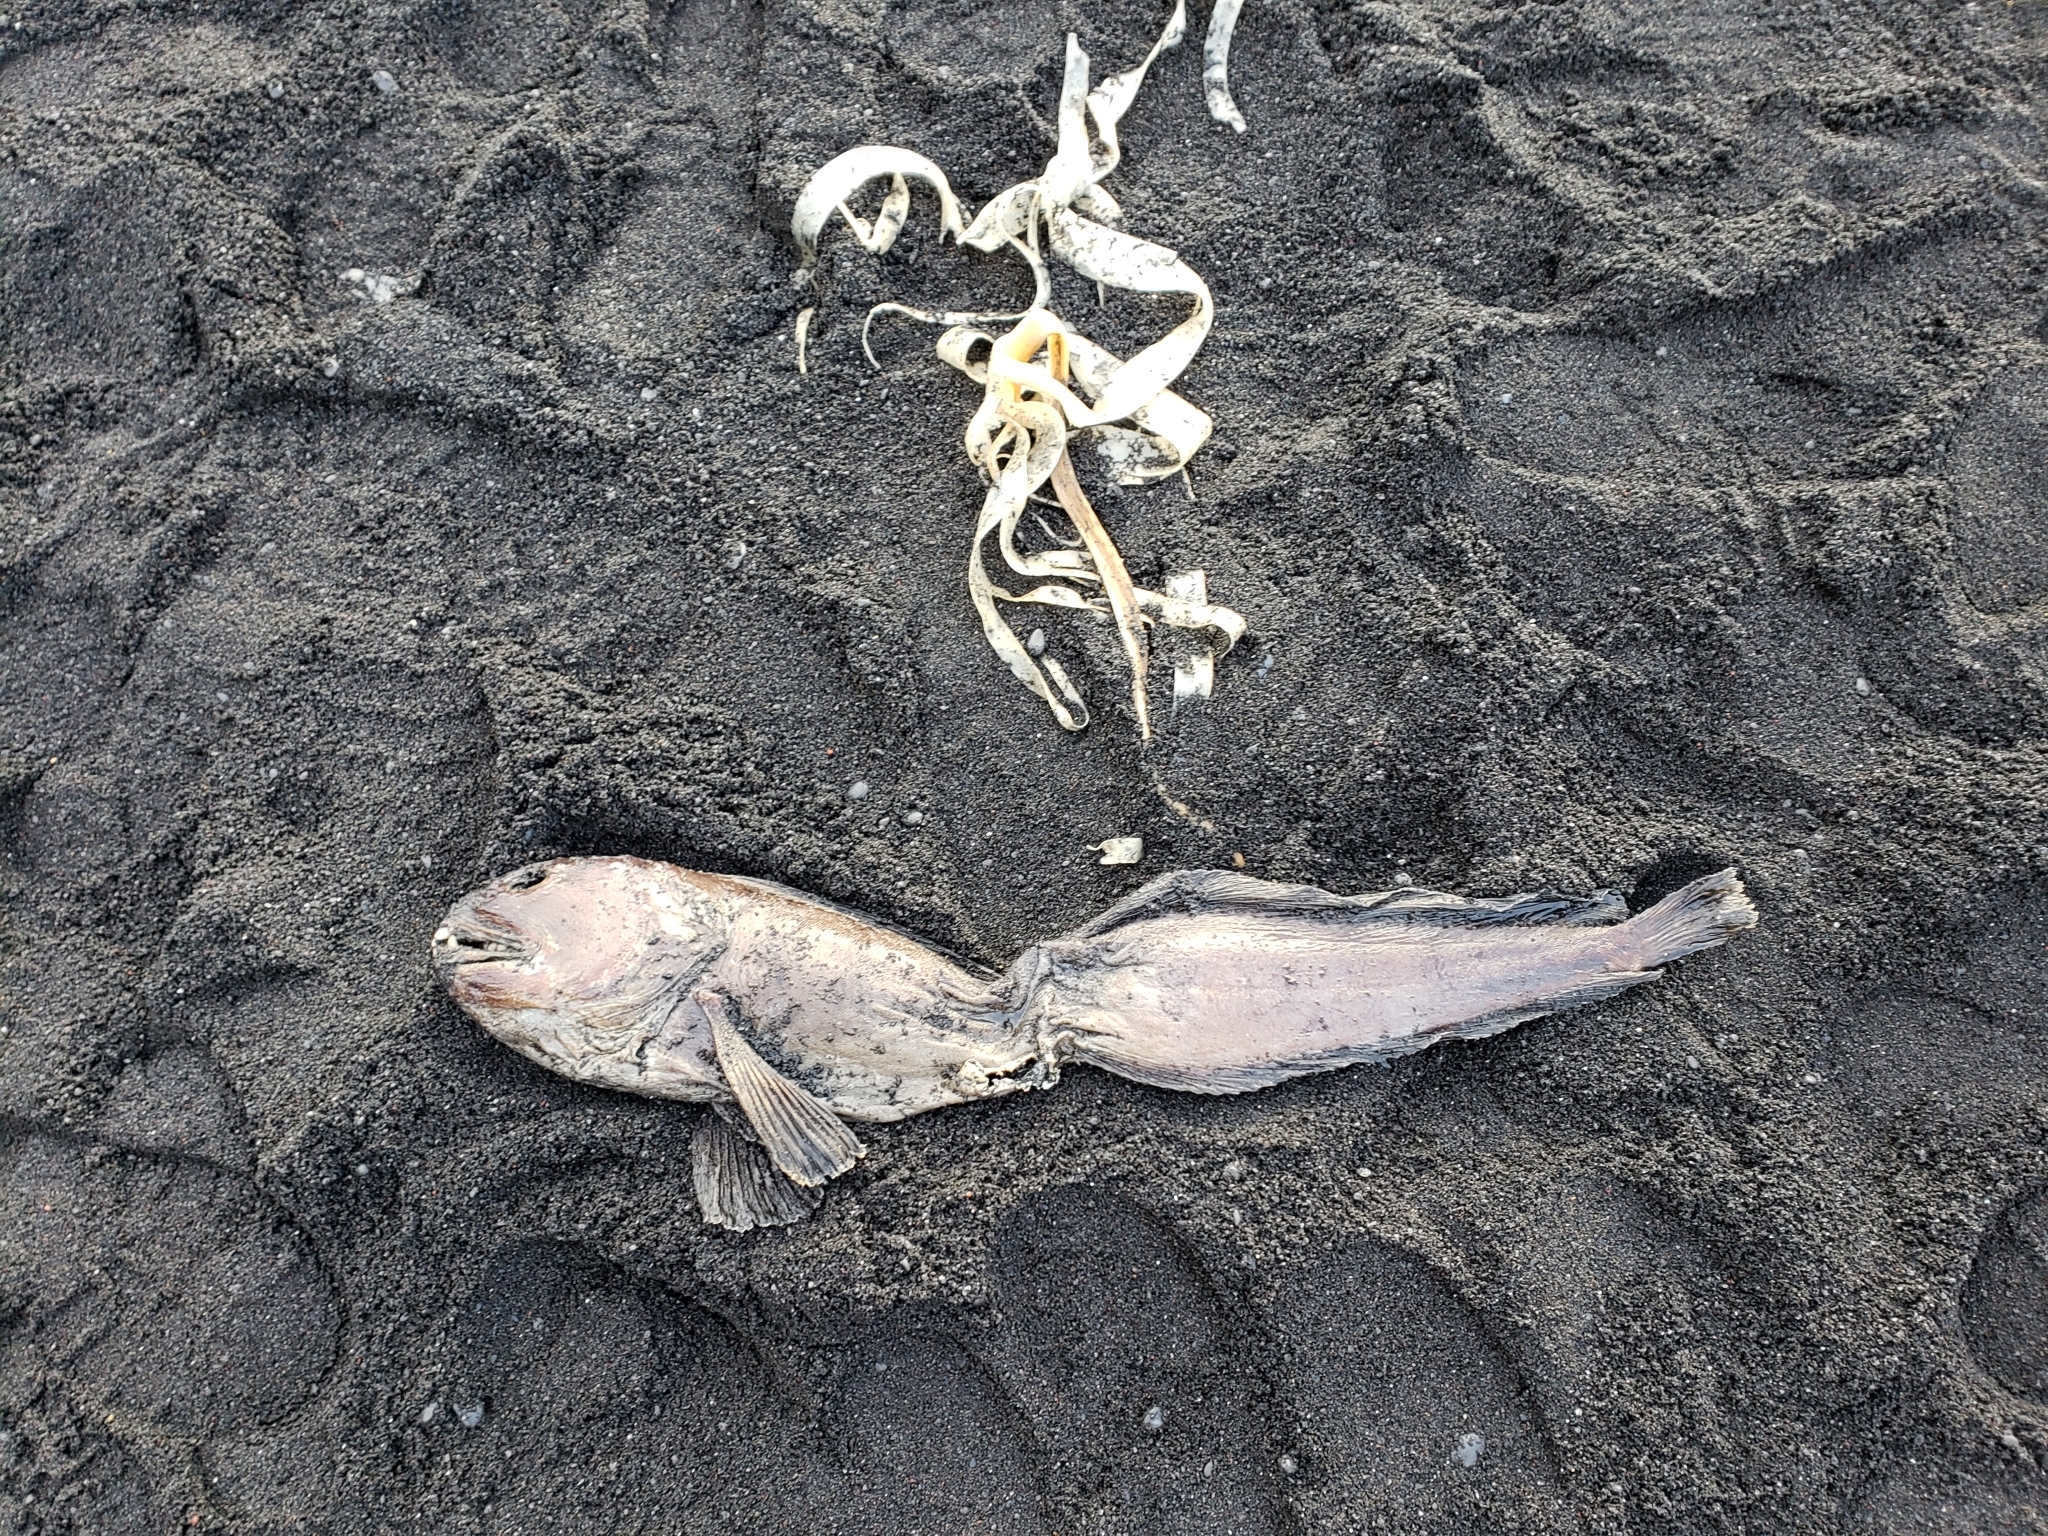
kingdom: Animalia
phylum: Chordata
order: Perciformes
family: Anarhichadidae
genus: Anarhichas
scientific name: Anarhichas lupus
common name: Wolf-fish
